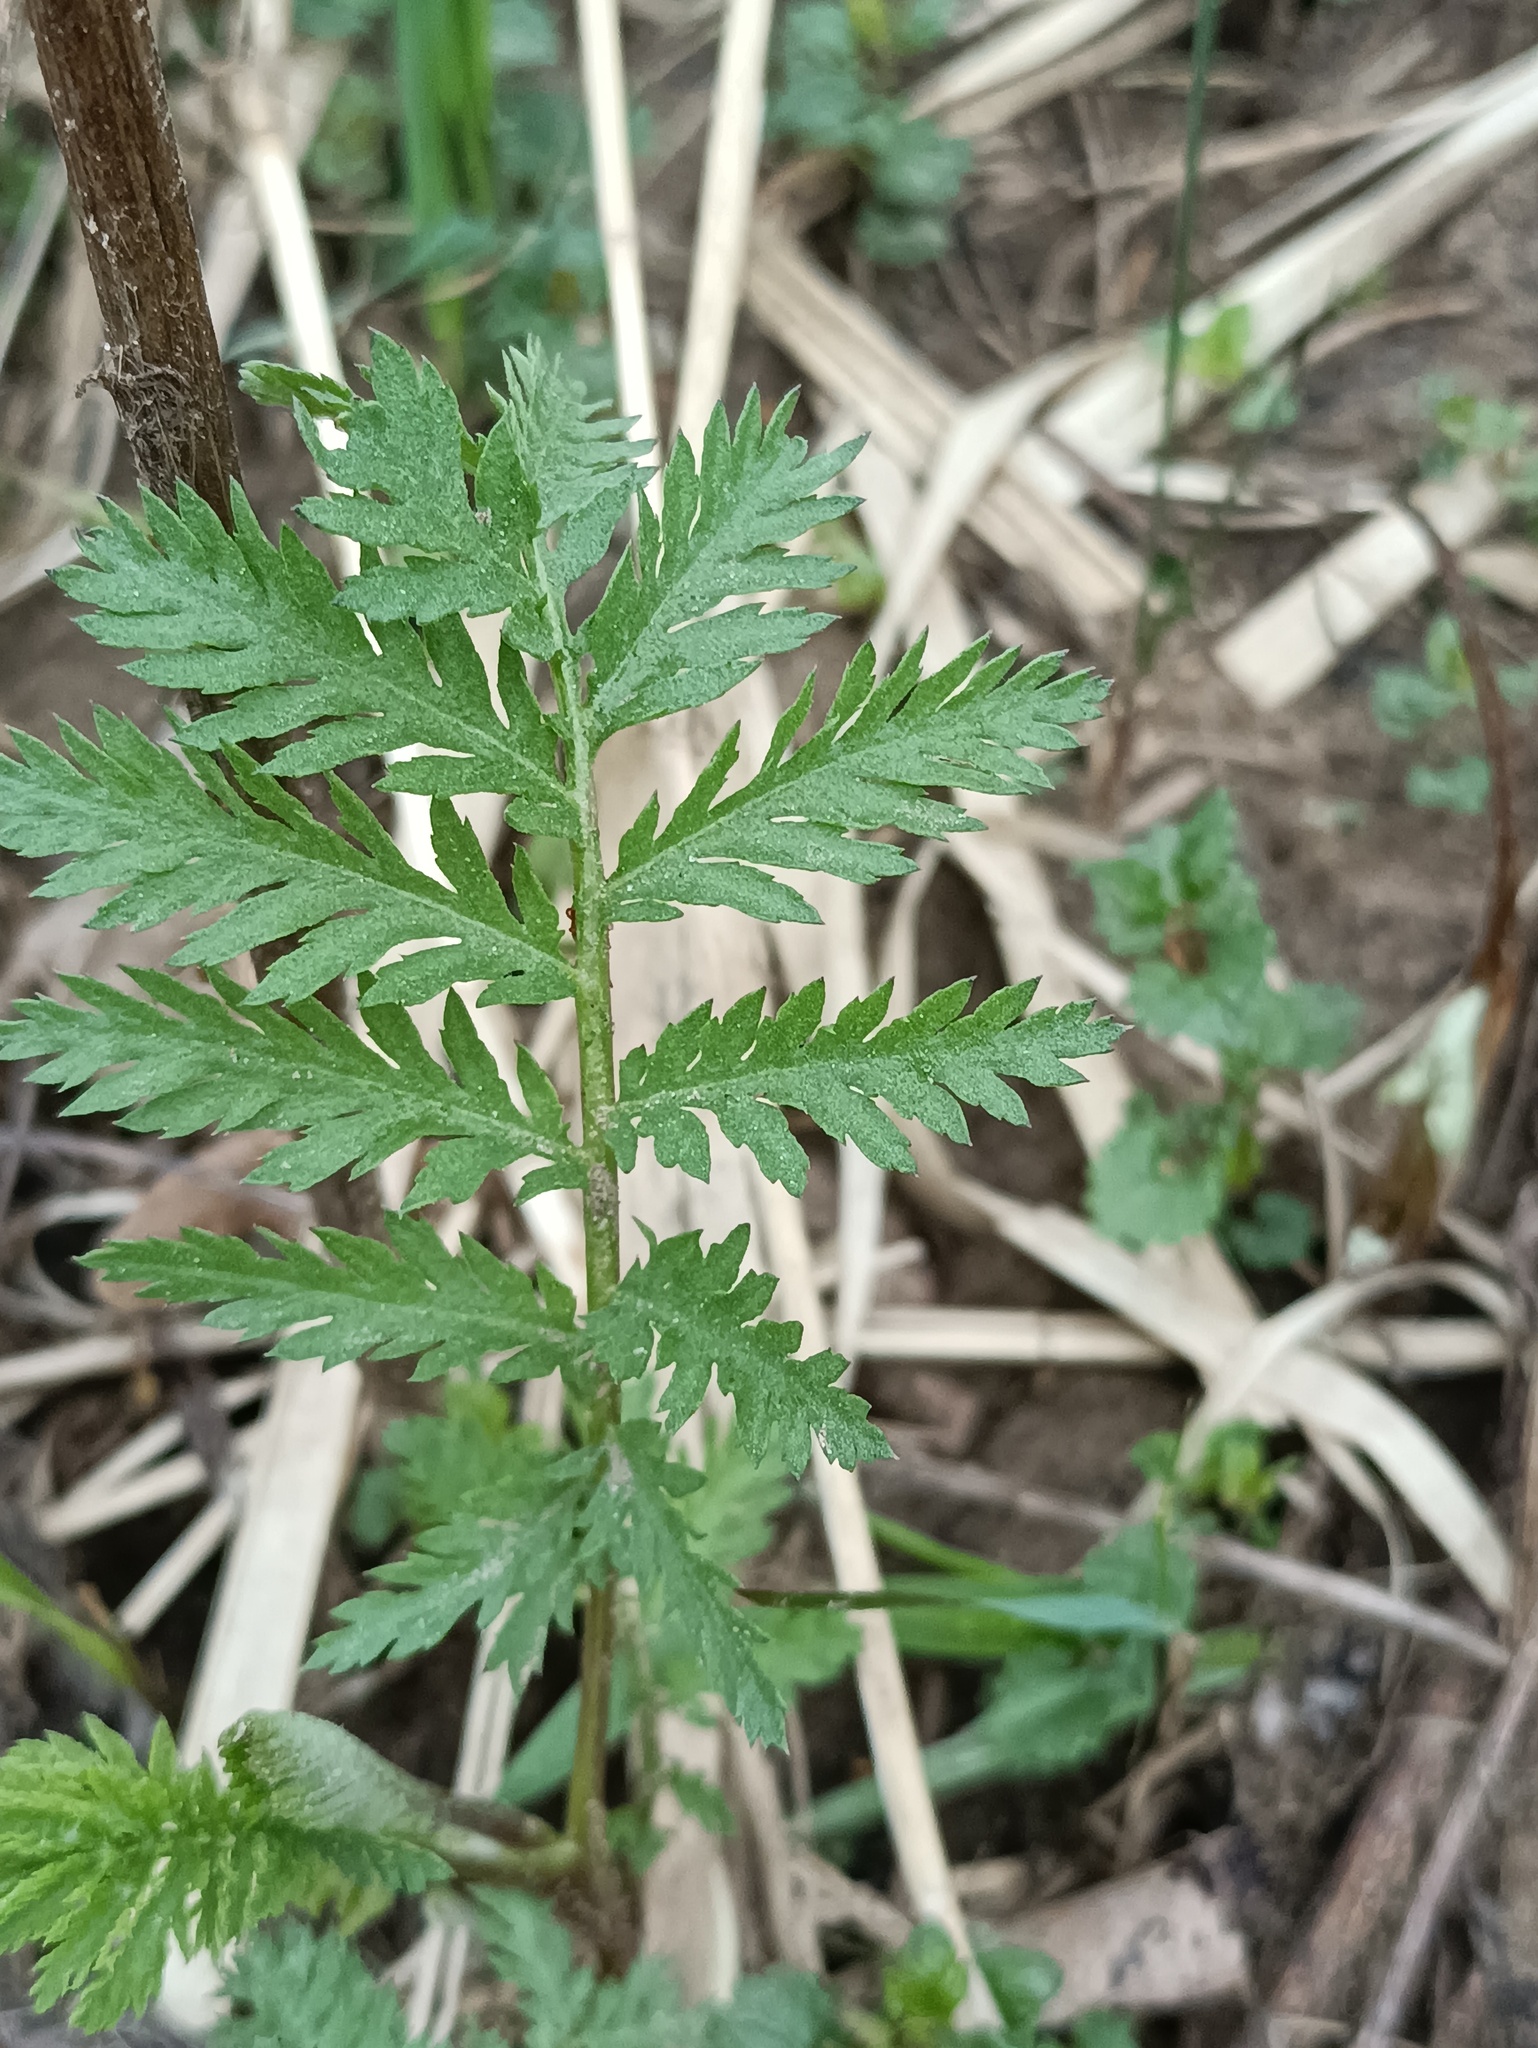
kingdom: Plantae
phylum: Tracheophyta
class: Magnoliopsida
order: Asterales
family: Asteraceae
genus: Tanacetum
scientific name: Tanacetum vulgare
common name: Common tansy
